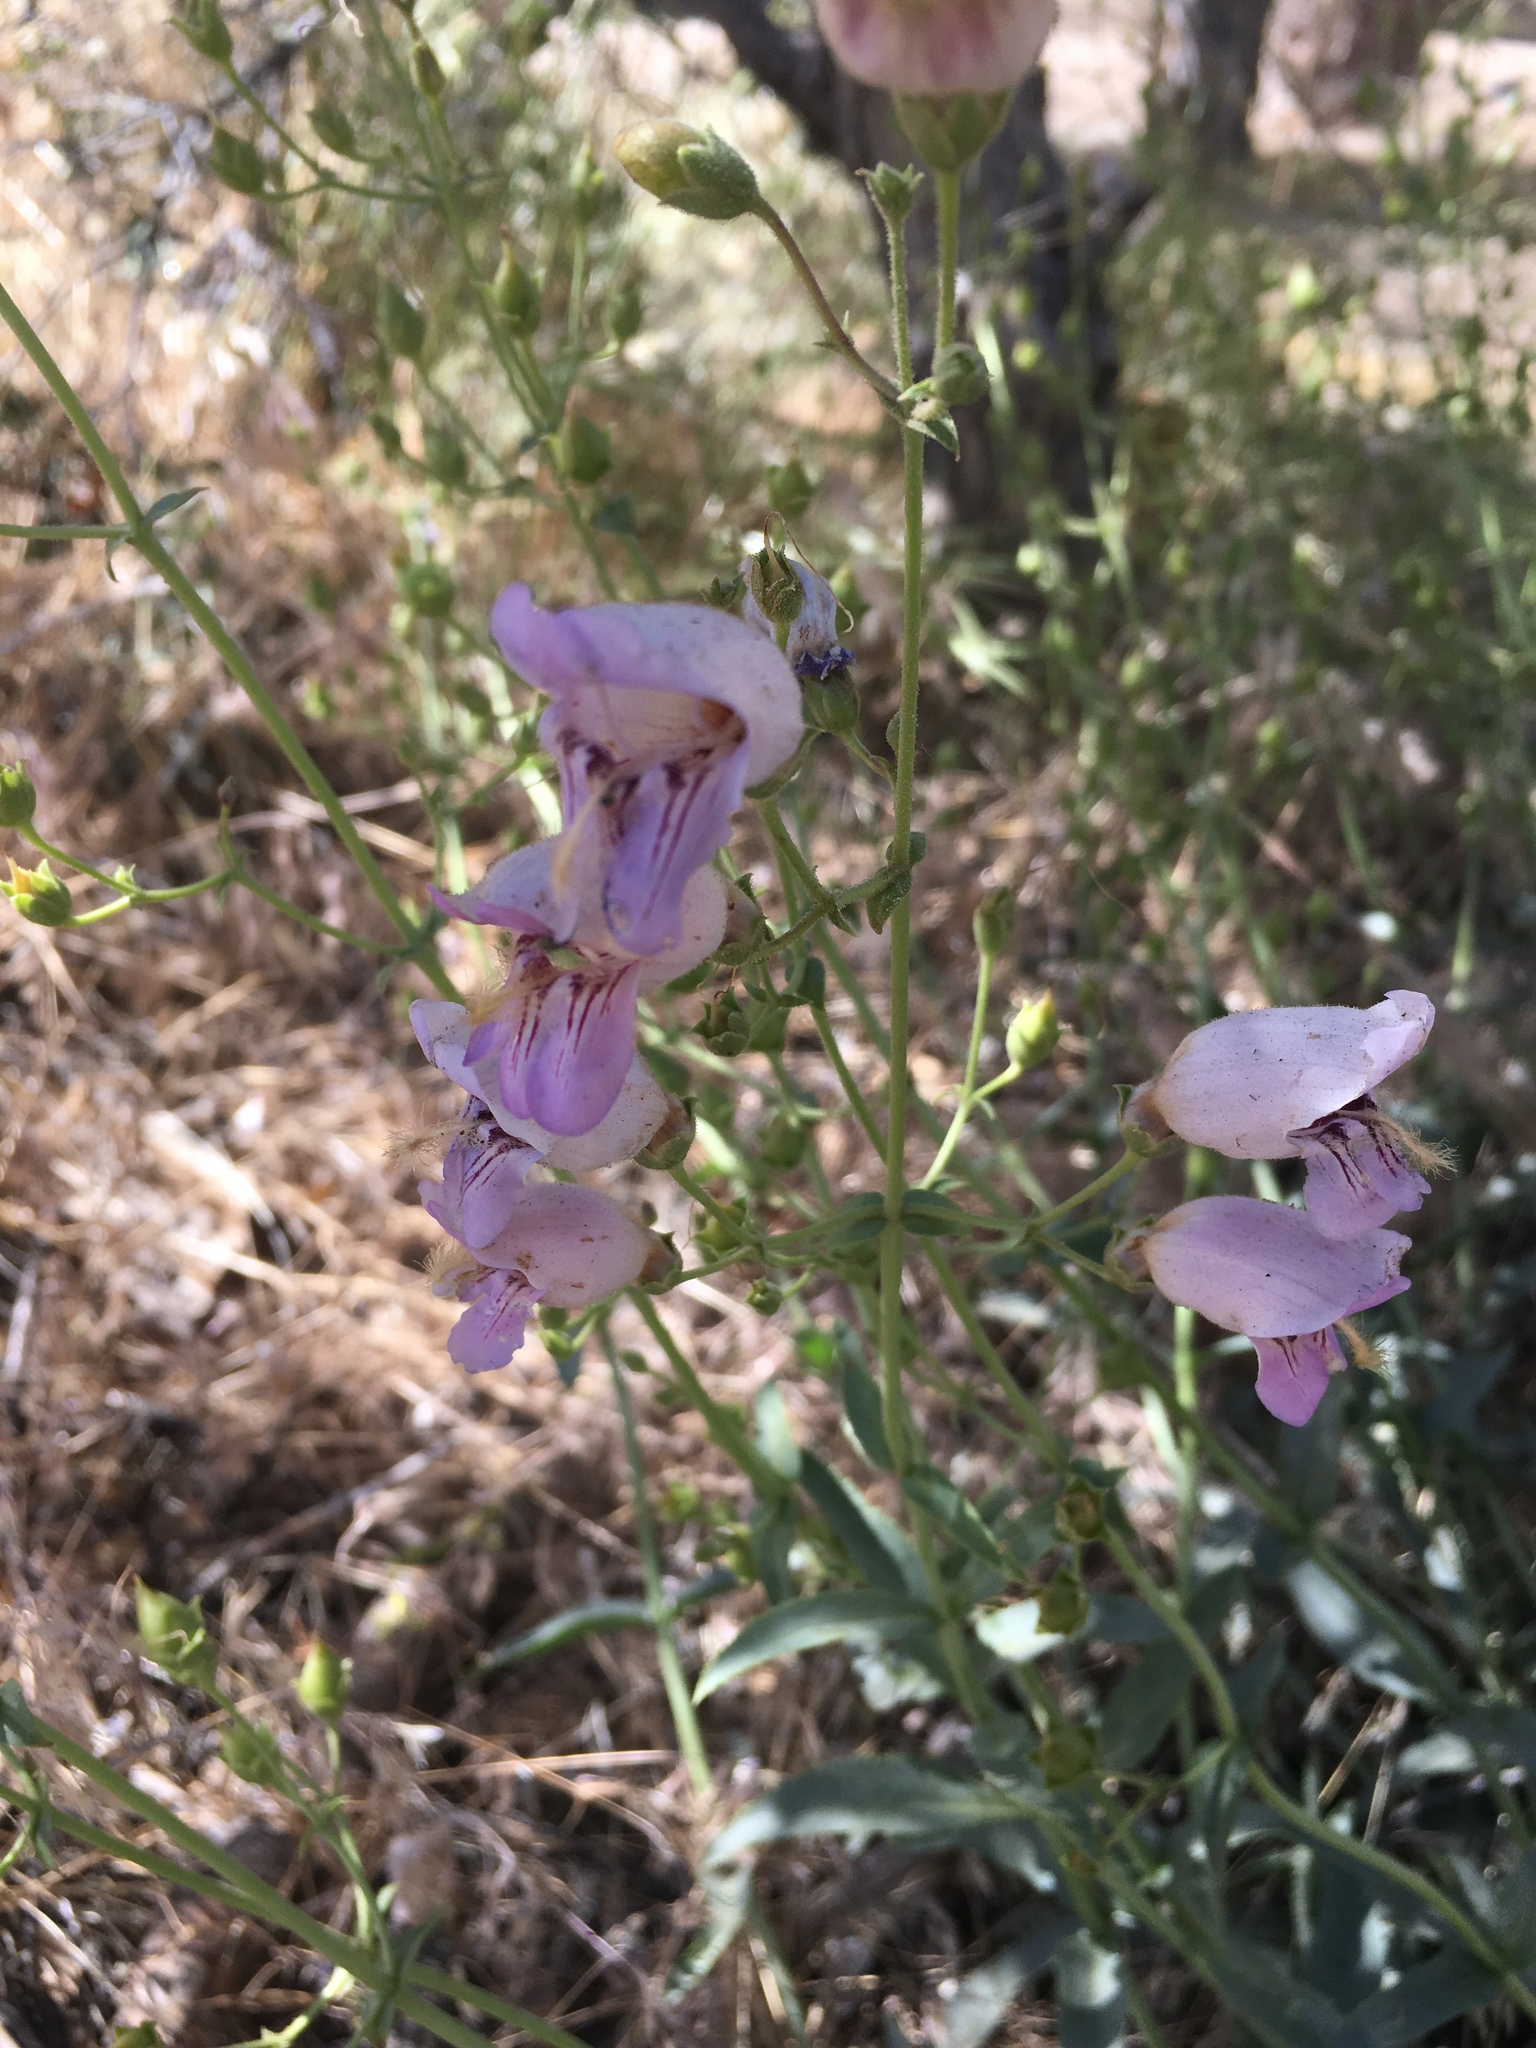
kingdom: Plantae
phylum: Tracheophyta
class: Magnoliopsida
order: Lamiales
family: Plantaginaceae
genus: Penstemon
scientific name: Penstemon grinnellii
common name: Grinnell's beardtongue
